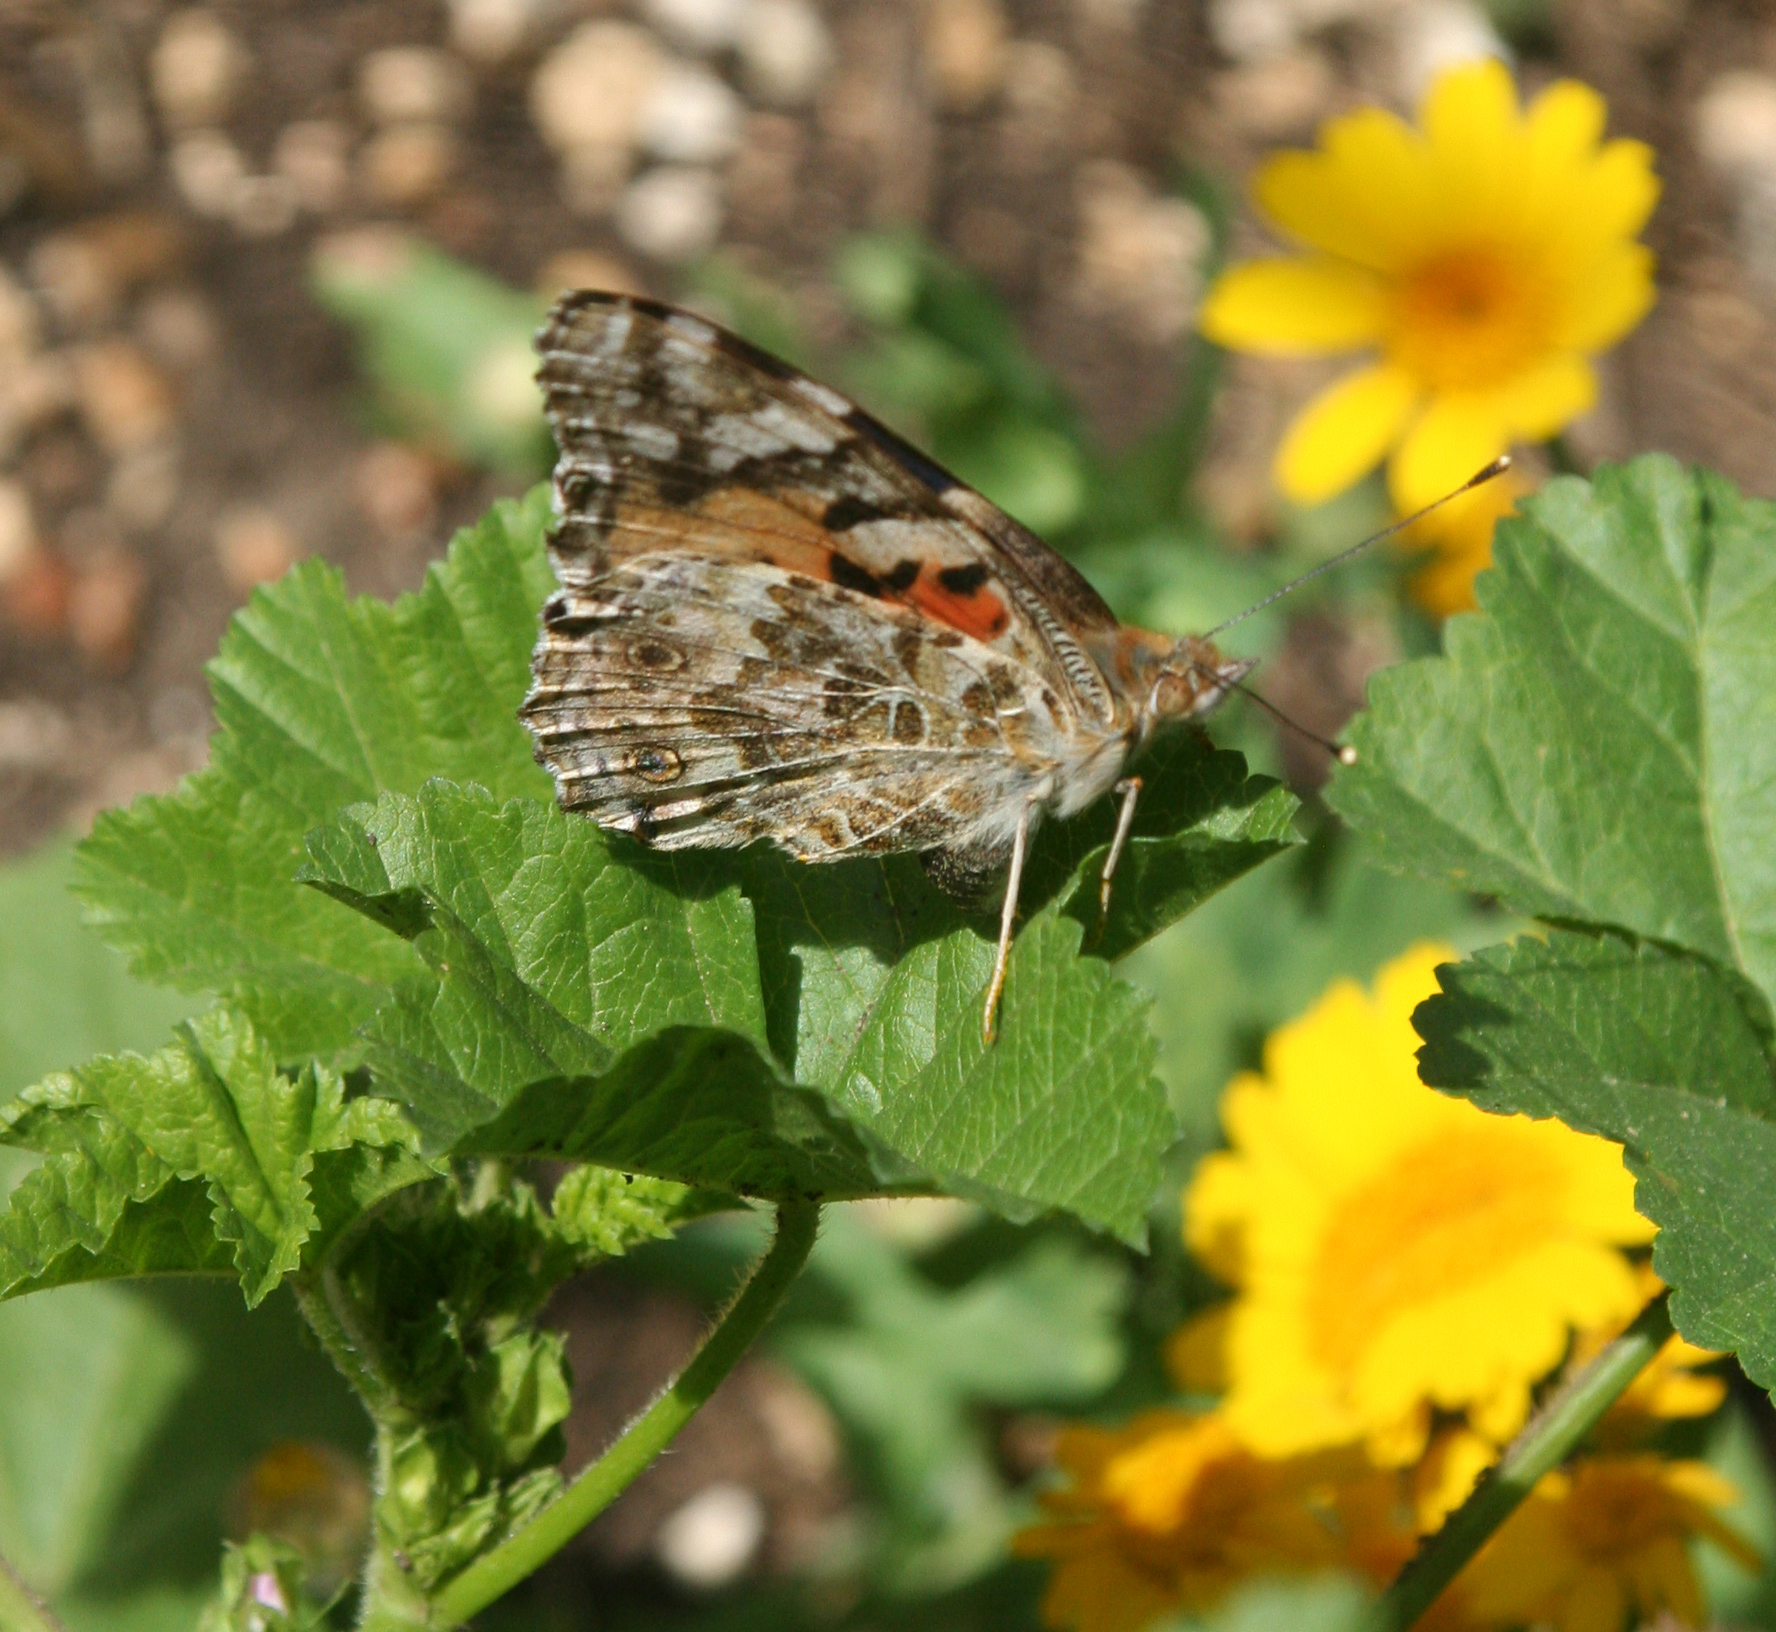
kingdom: Animalia
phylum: Arthropoda
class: Insecta
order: Lepidoptera
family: Nymphalidae
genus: Vanessa
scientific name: Vanessa cardui
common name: Painted lady
